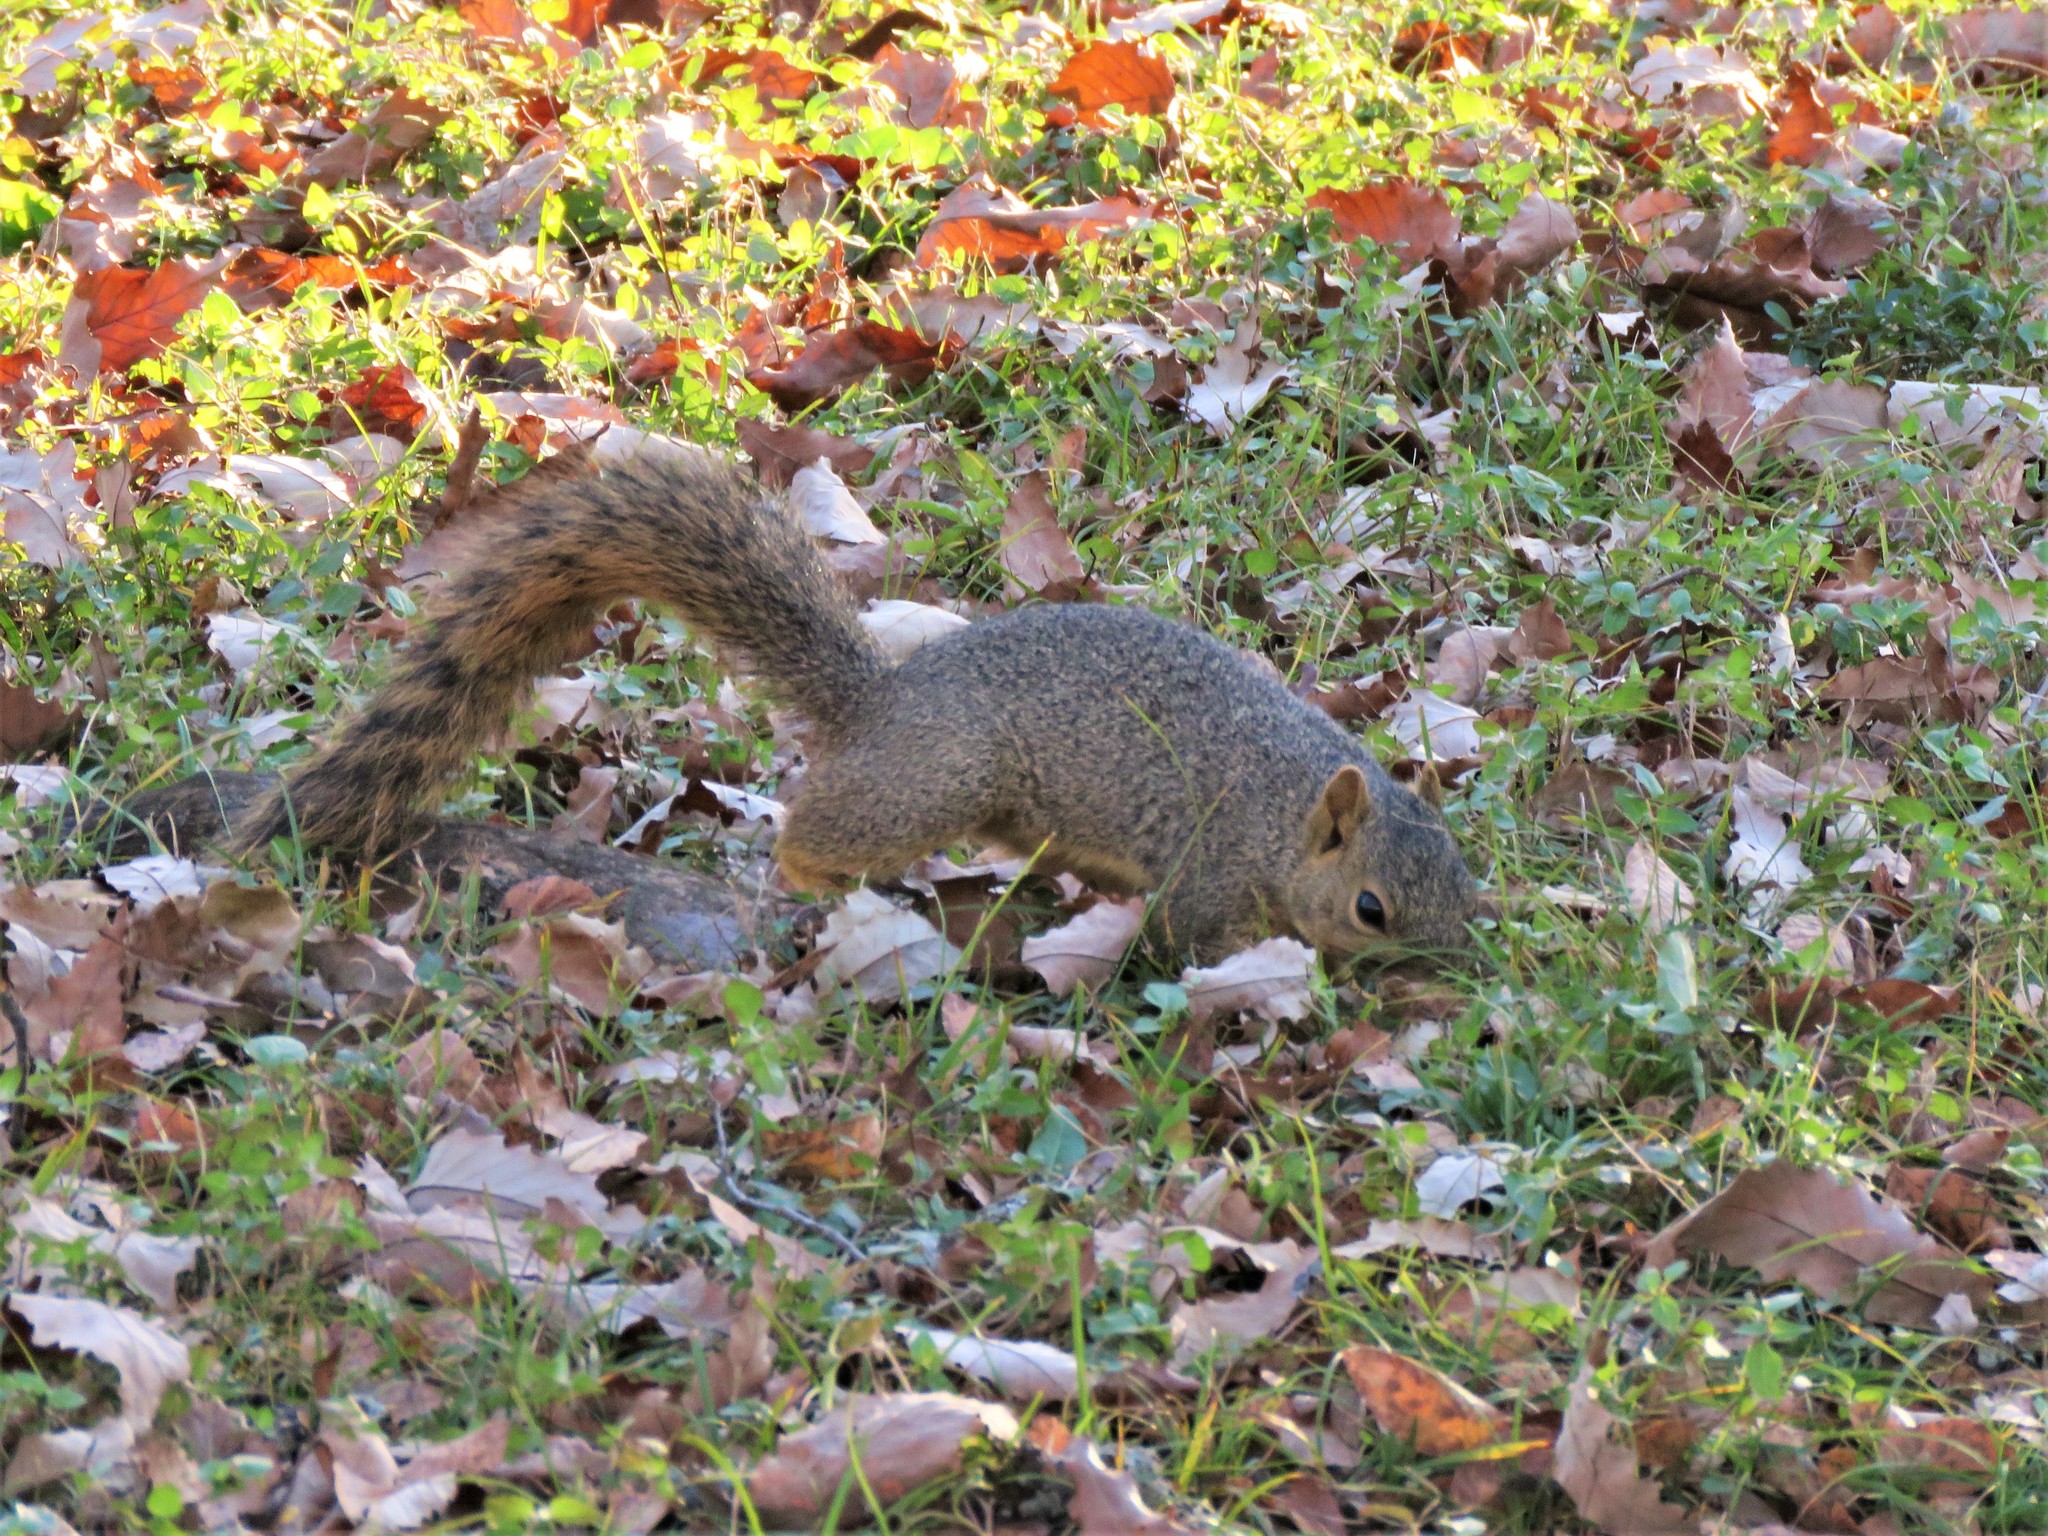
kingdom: Animalia
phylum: Chordata
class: Mammalia
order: Rodentia
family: Sciuridae
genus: Sciurus
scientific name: Sciurus niger
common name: Fox squirrel
